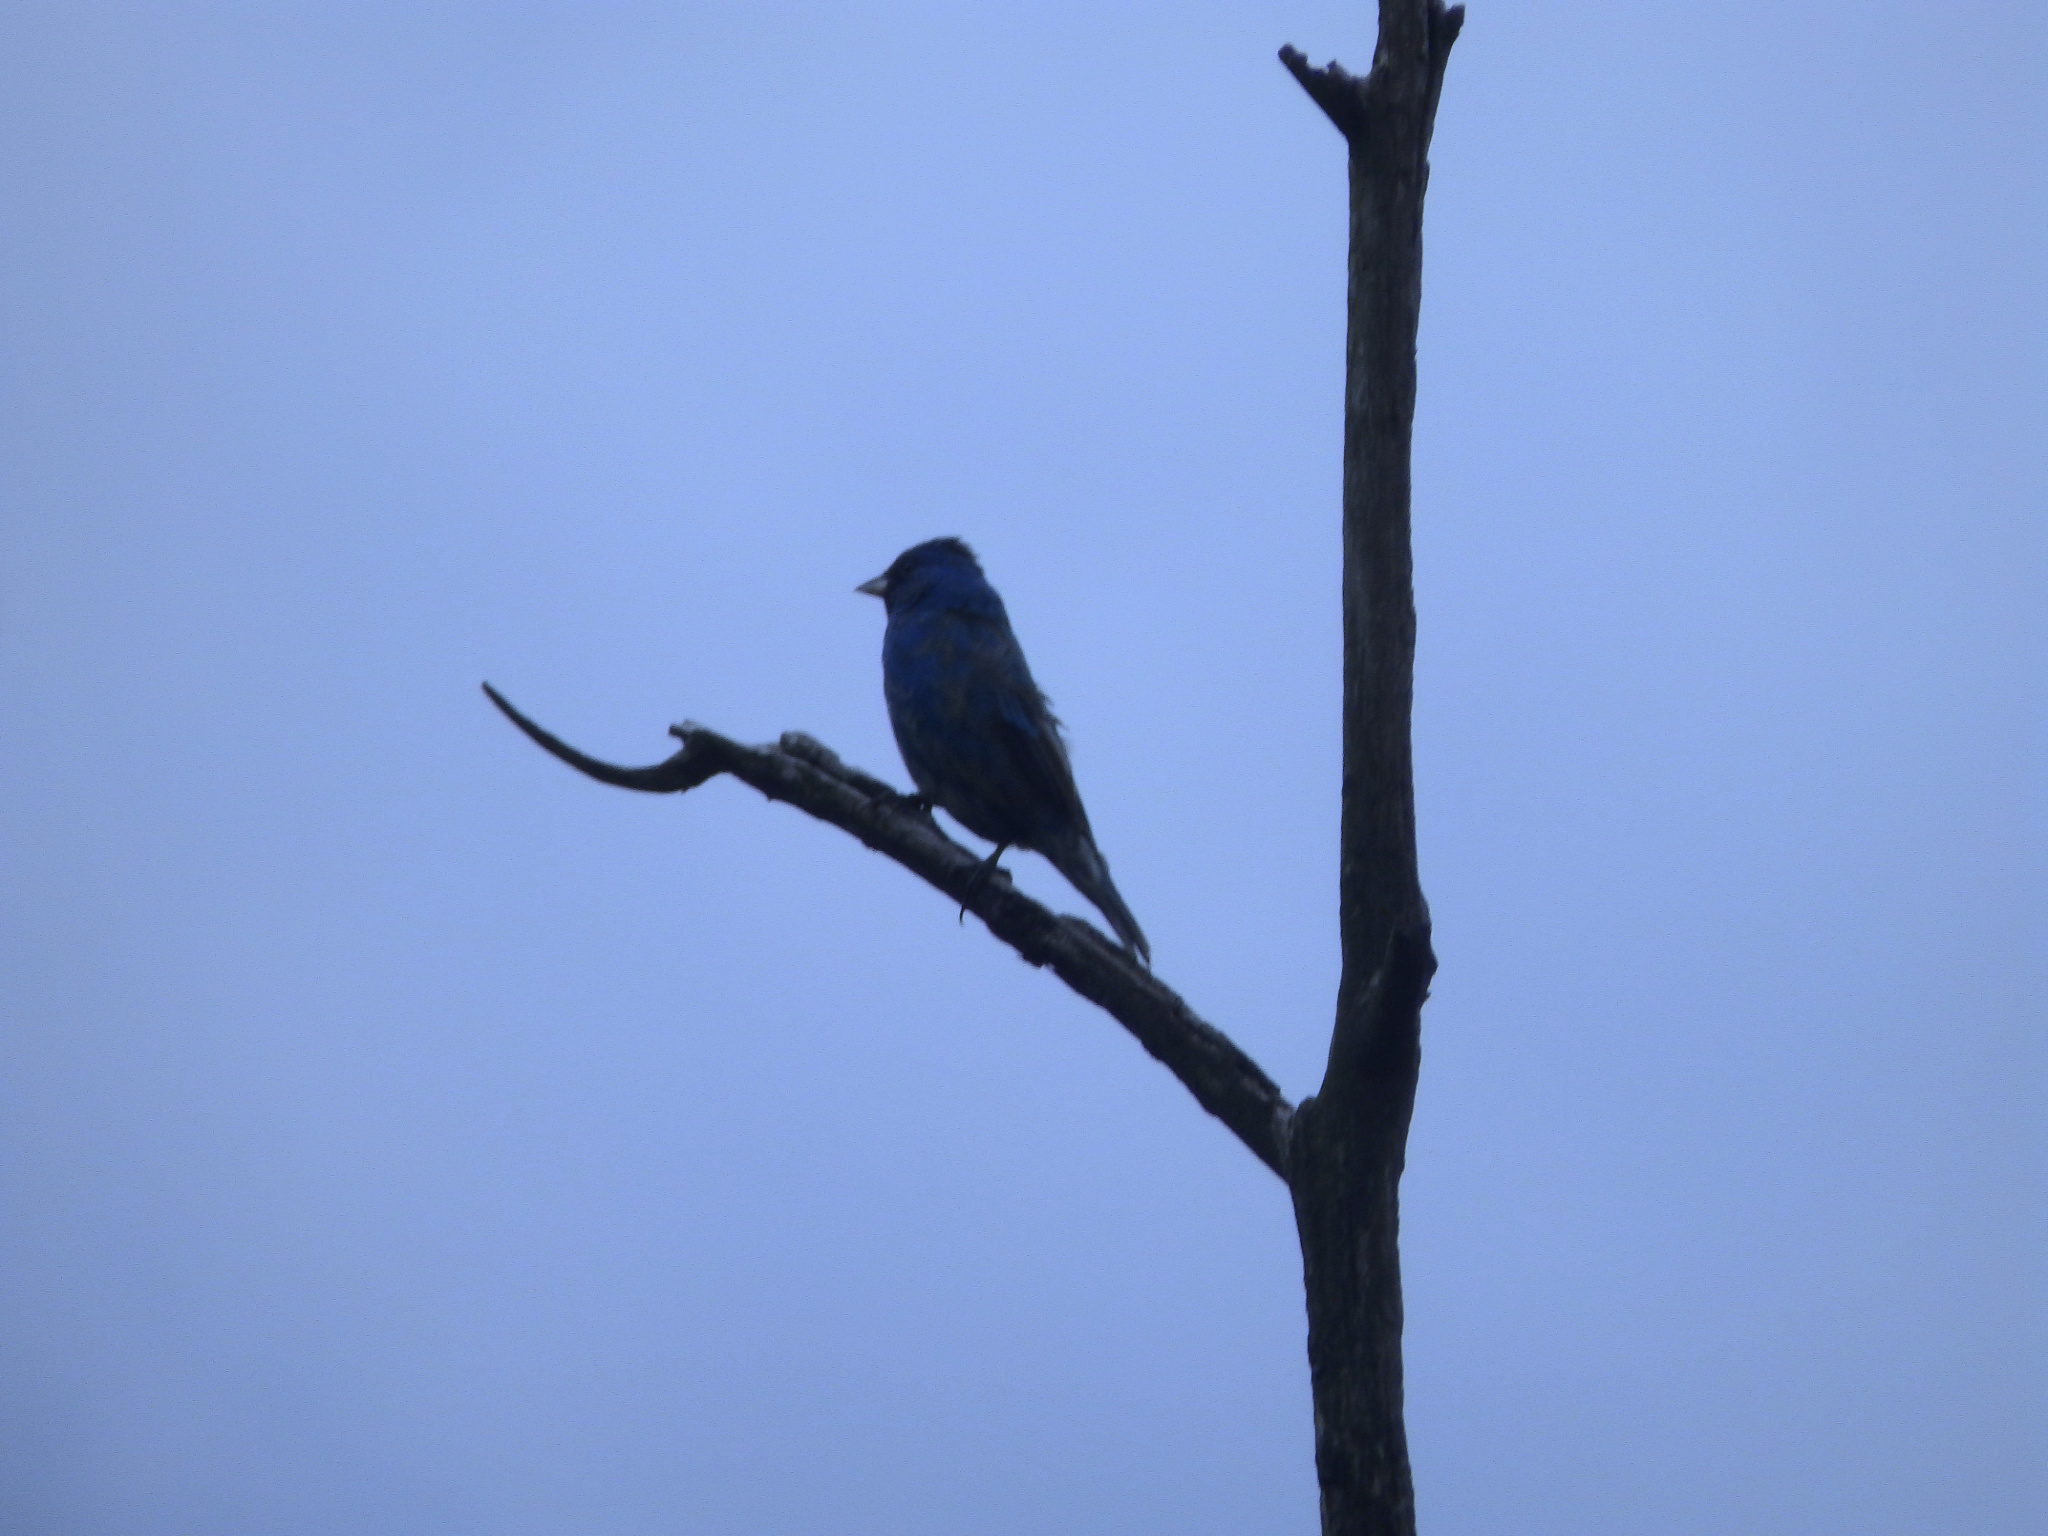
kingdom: Animalia
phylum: Chordata
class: Aves
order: Passeriformes
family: Cardinalidae
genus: Passerina
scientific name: Passerina cyanea
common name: Indigo bunting
